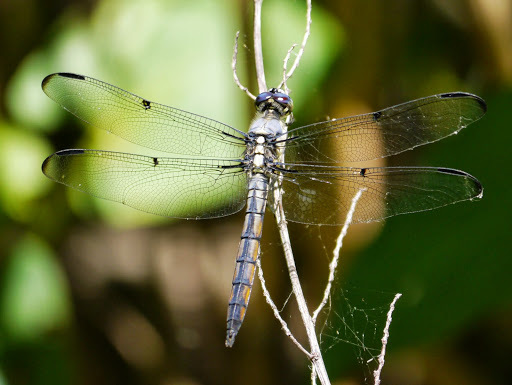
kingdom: Animalia
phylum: Arthropoda
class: Insecta
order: Odonata
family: Libellulidae
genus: Libellula
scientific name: Libellula vibrans
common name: Great blue skimmer
